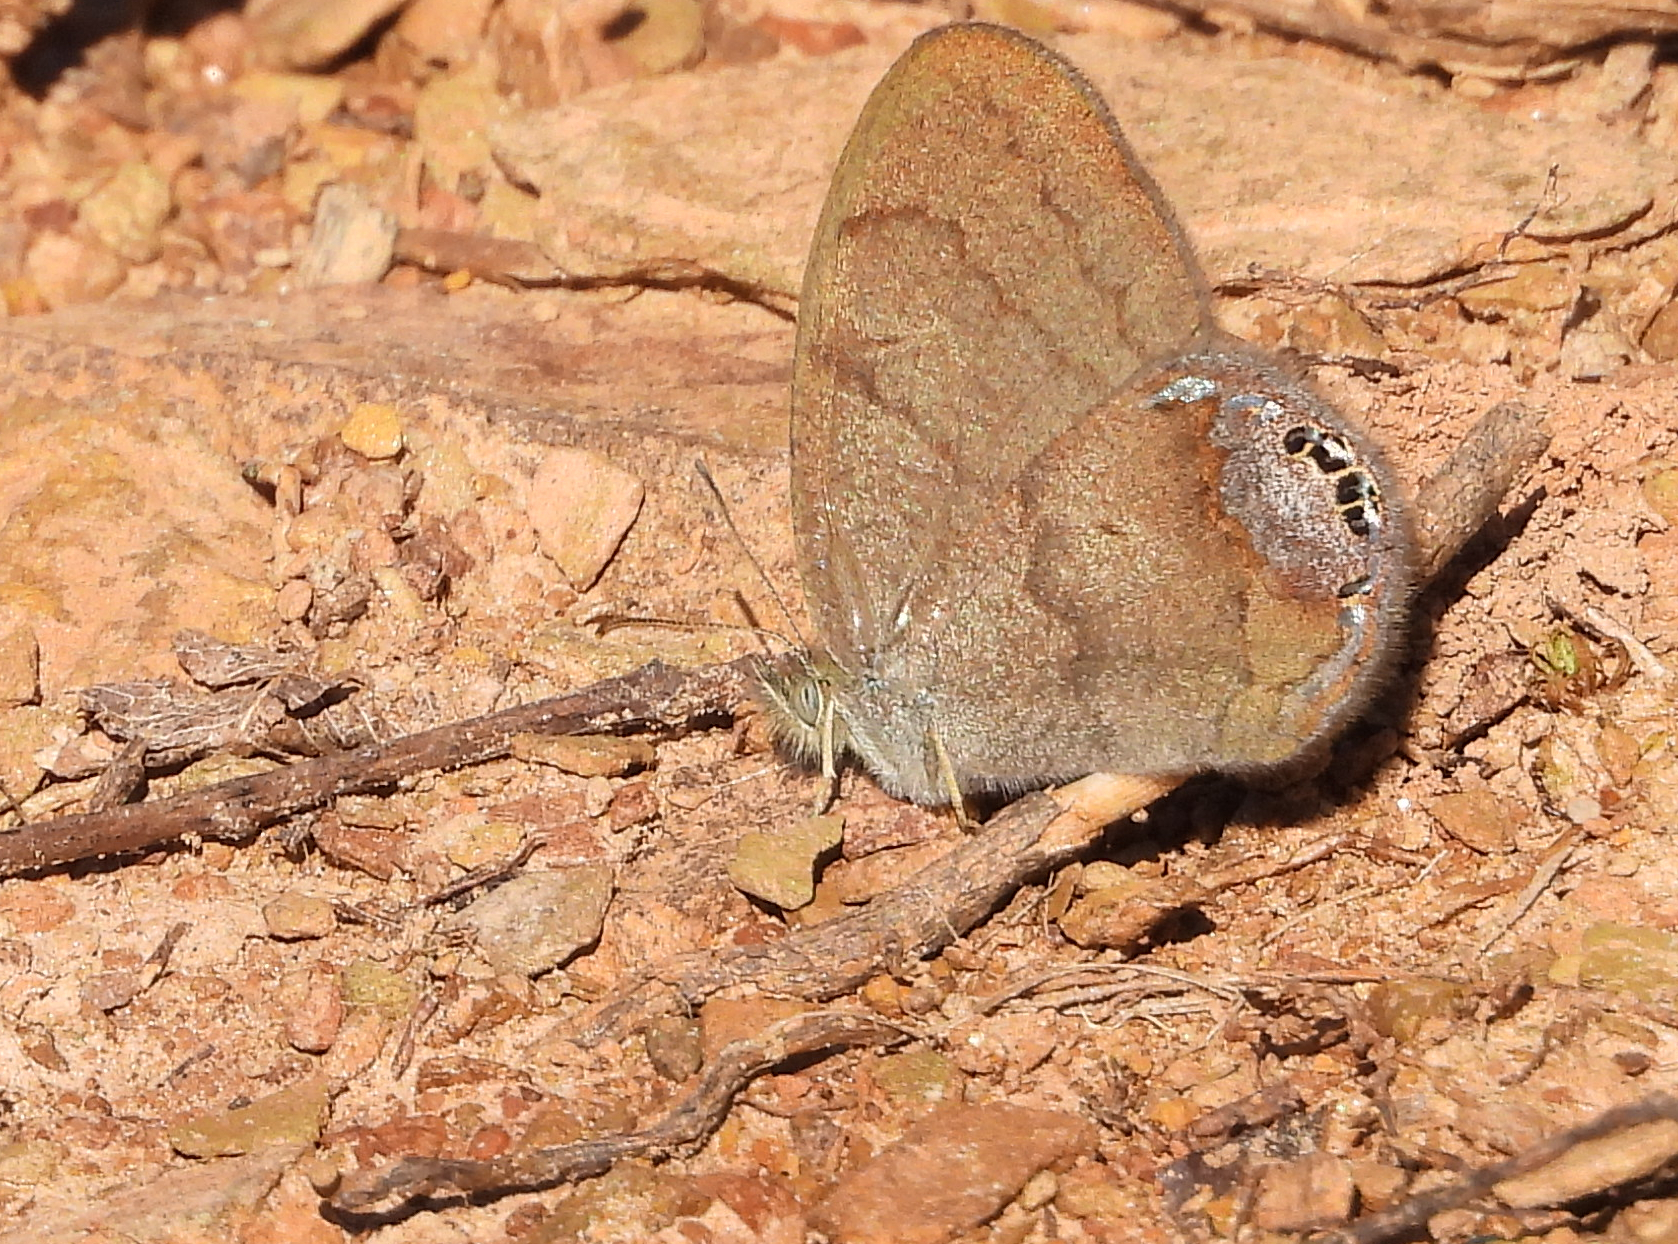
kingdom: Animalia
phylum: Arthropoda
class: Insecta
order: Lepidoptera
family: Nymphalidae
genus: Euptychia
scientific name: Euptychia cornelius
